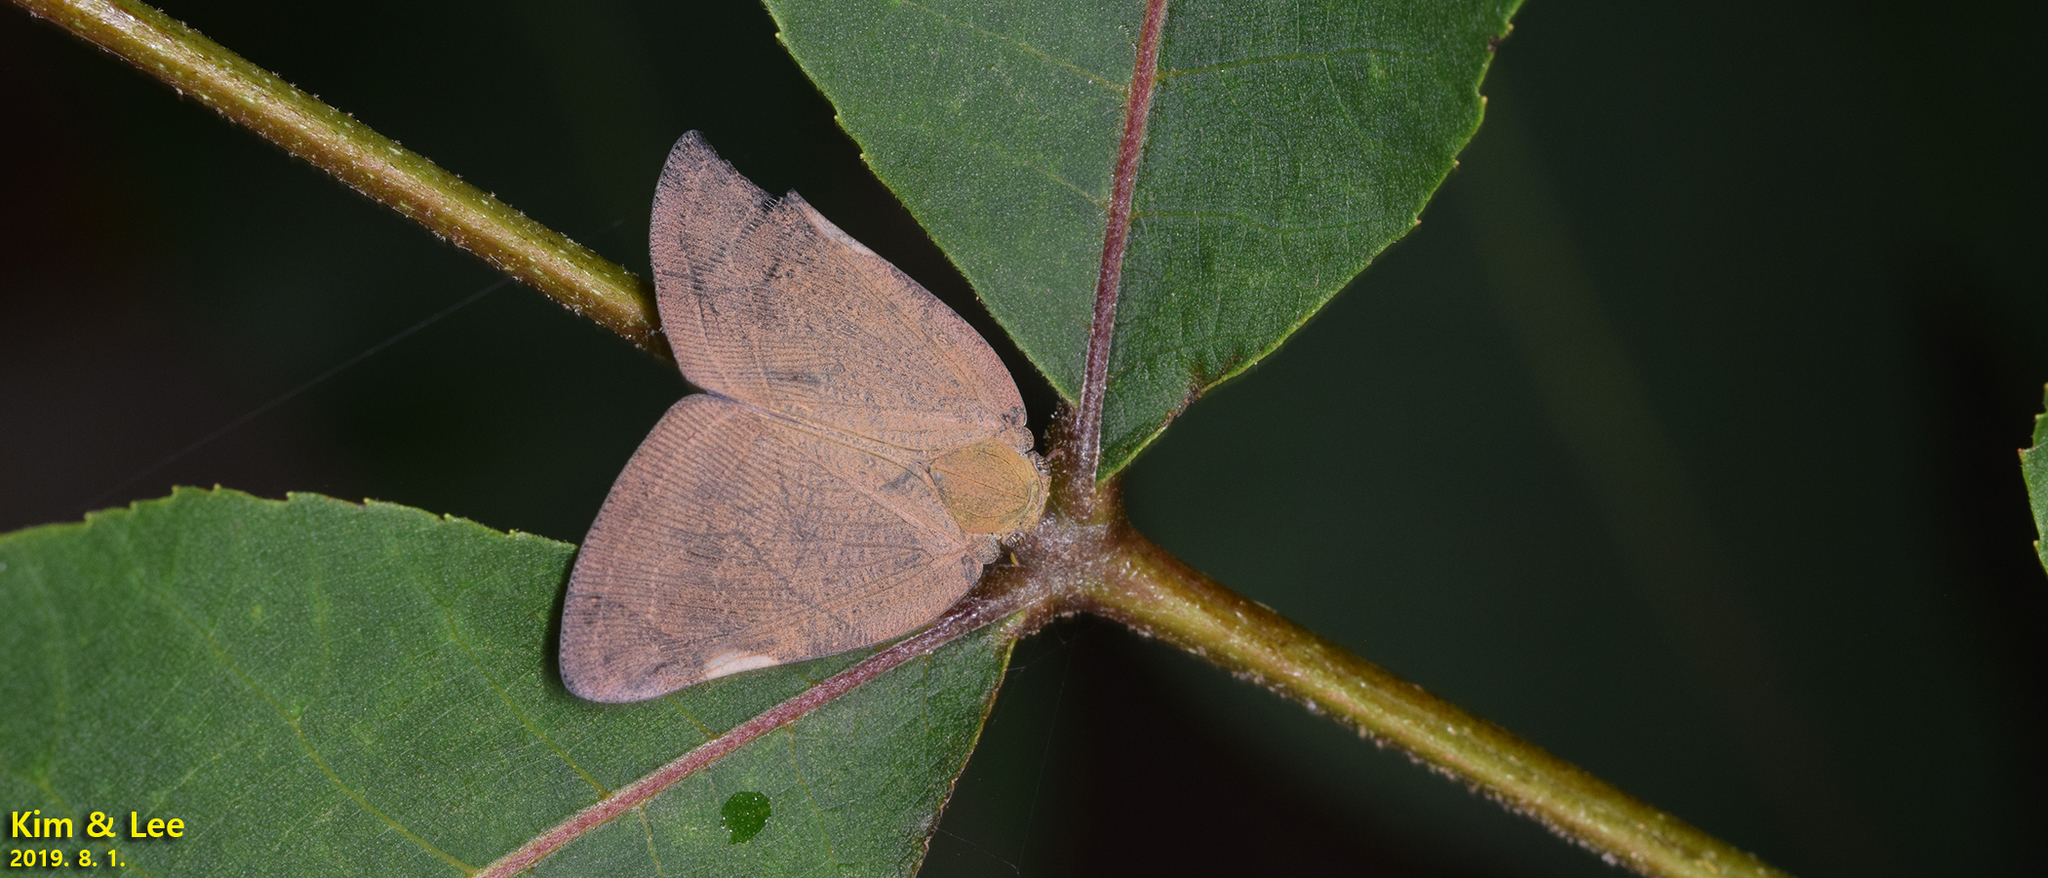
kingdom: Animalia
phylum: Arthropoda
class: Insecta
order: Hemiptera
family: Ricaniidae
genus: Ricanula
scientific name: Ricanula sublimata
